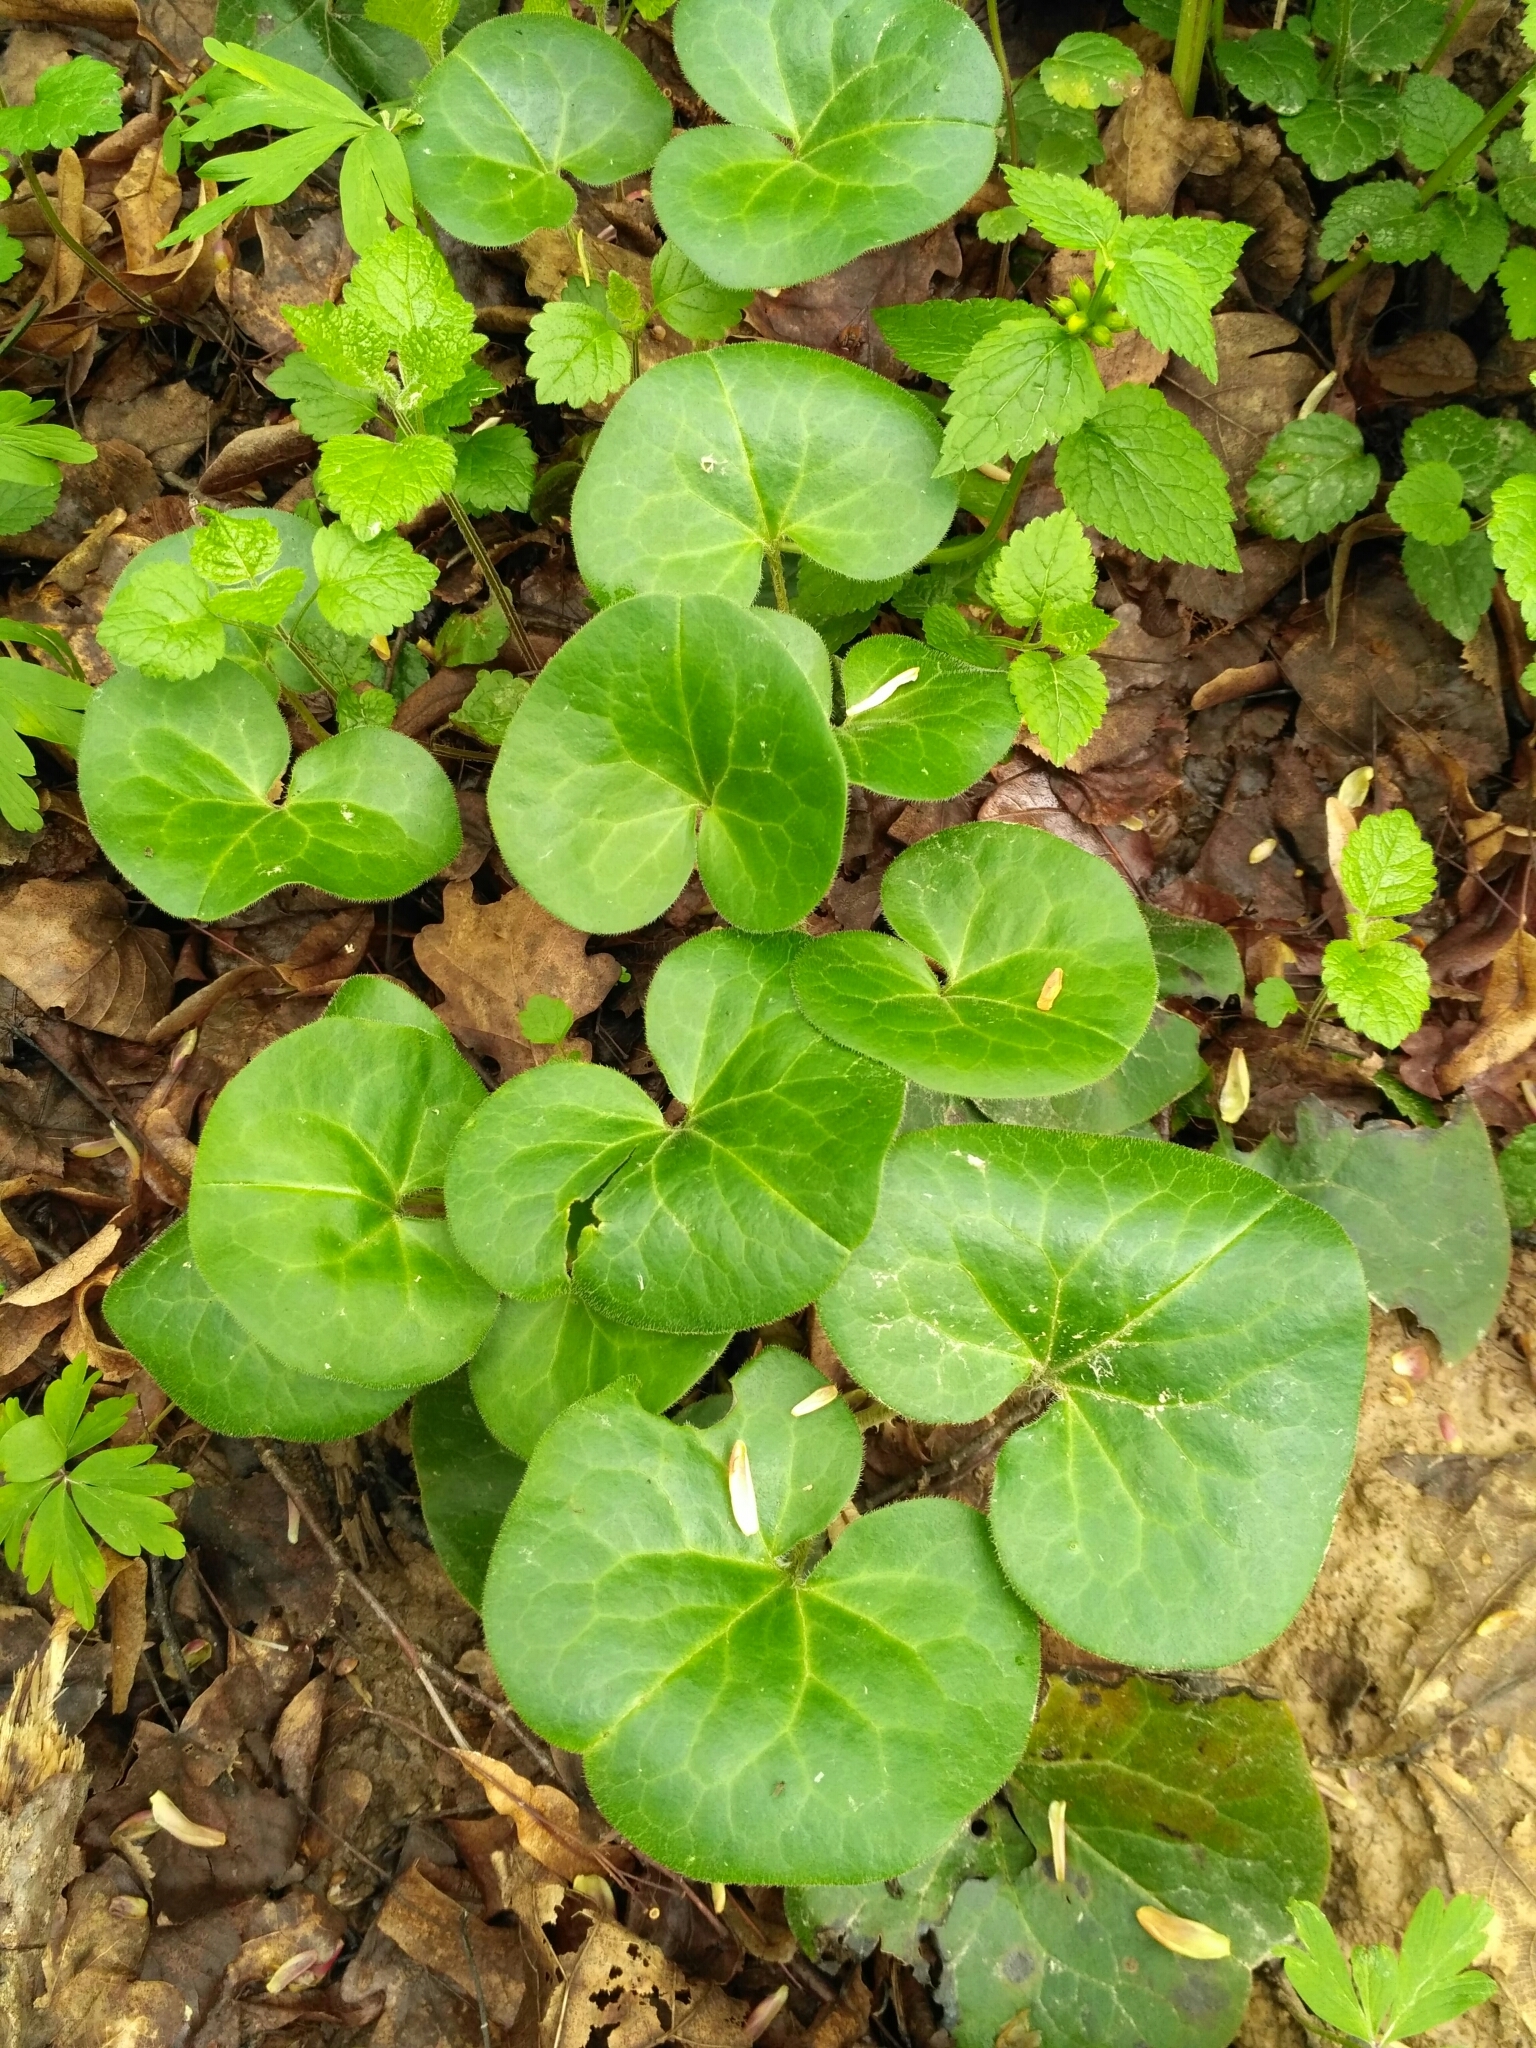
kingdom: Plantae
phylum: Tracheophyta
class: Magnoliopsida
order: Piperales
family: Aristolochiaceae
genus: Asarum
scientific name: Asarum europaeum
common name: Asarabacca
